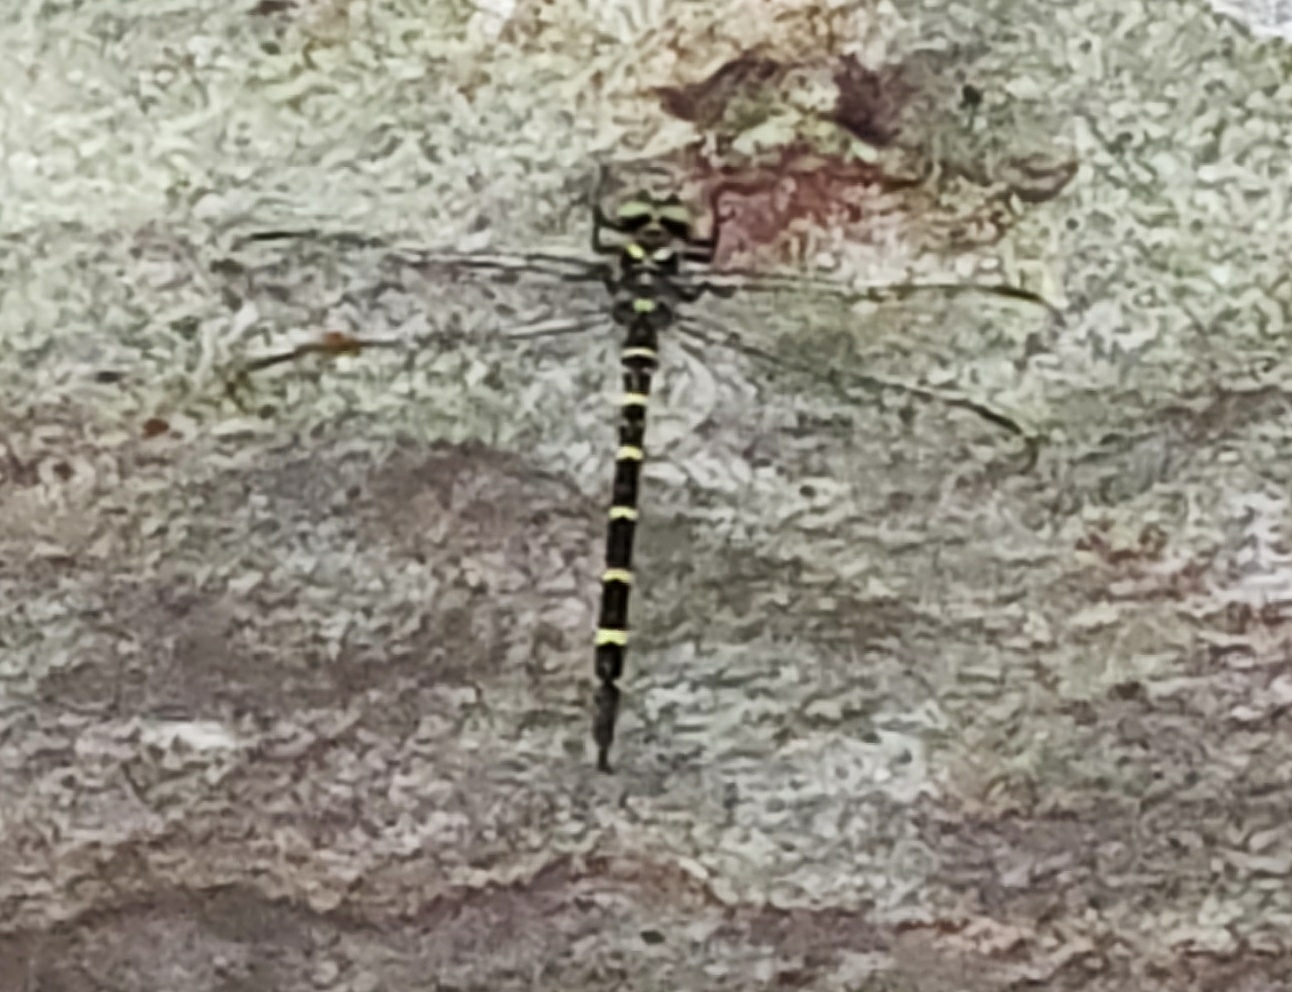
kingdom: Animalia
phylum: Arthropoda
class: Insecta
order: Odonata
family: Cordulegastridae
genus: Cordulegaster
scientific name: Cordulegaster erronea
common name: Tiger spiketail
